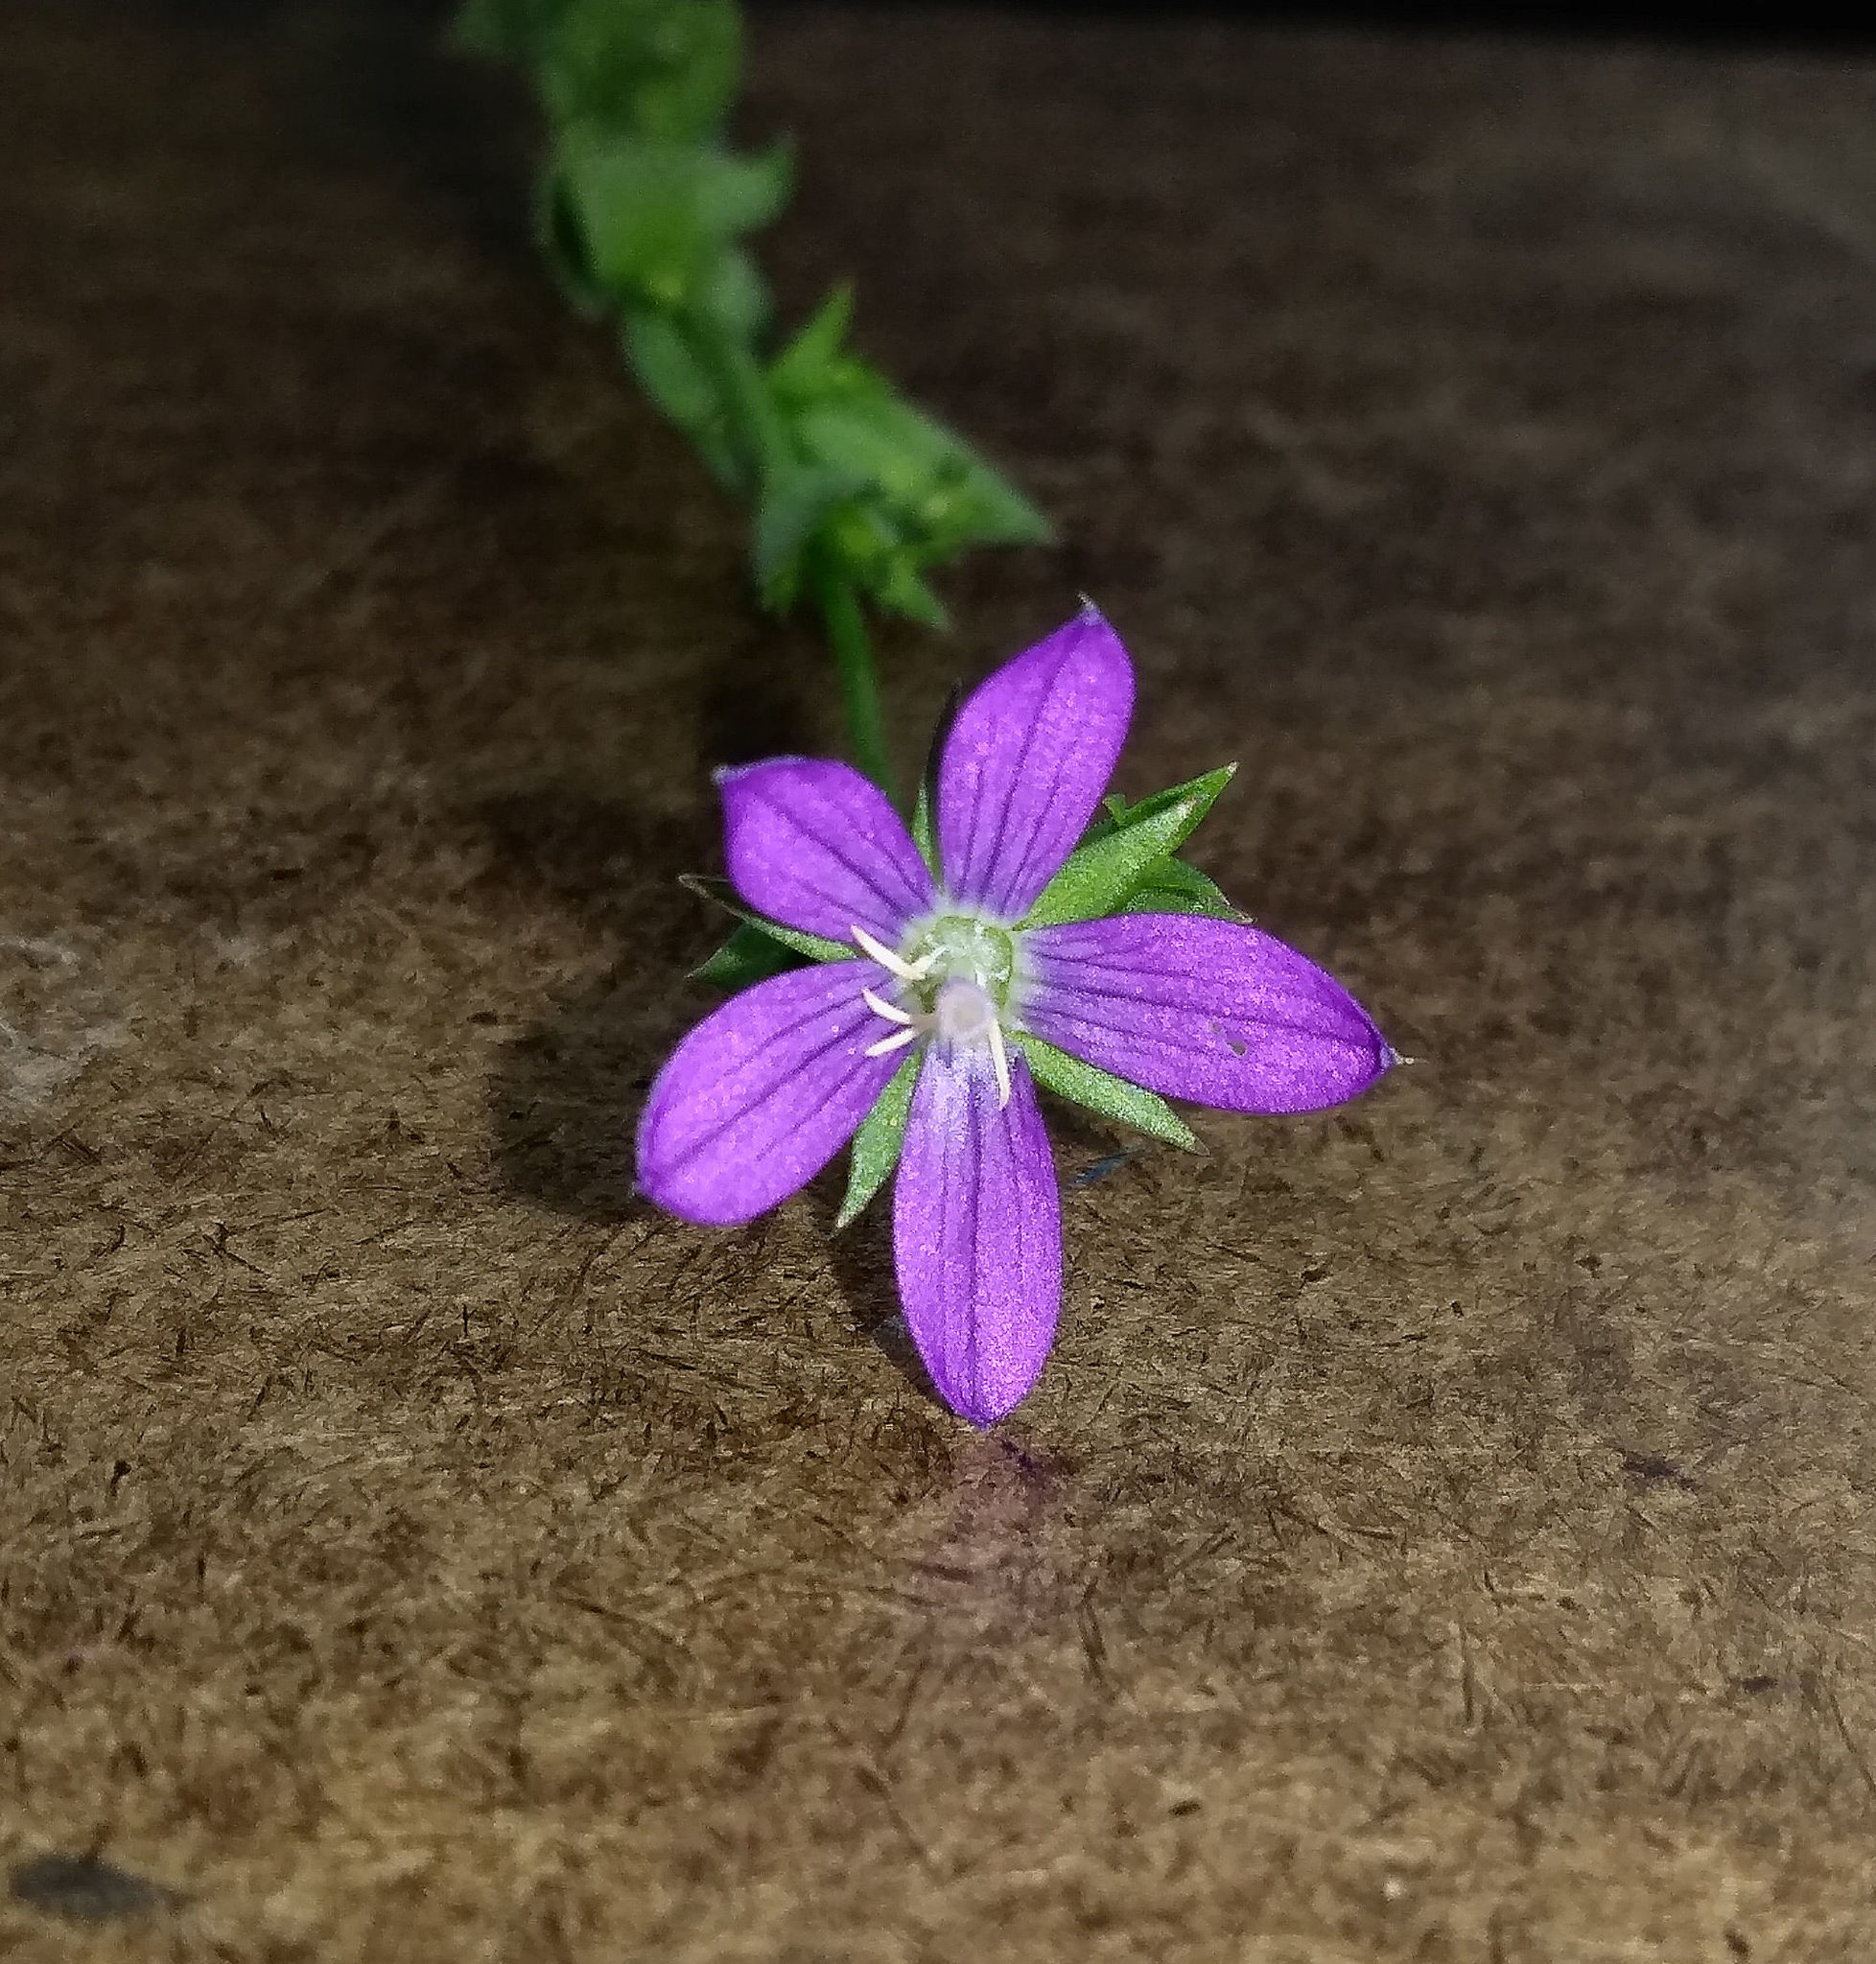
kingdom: Plantae
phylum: Tracheophyta
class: Magnoliopsida
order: Asterales
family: Campanulaceae
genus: Triodanis
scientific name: Triodanis biflora
